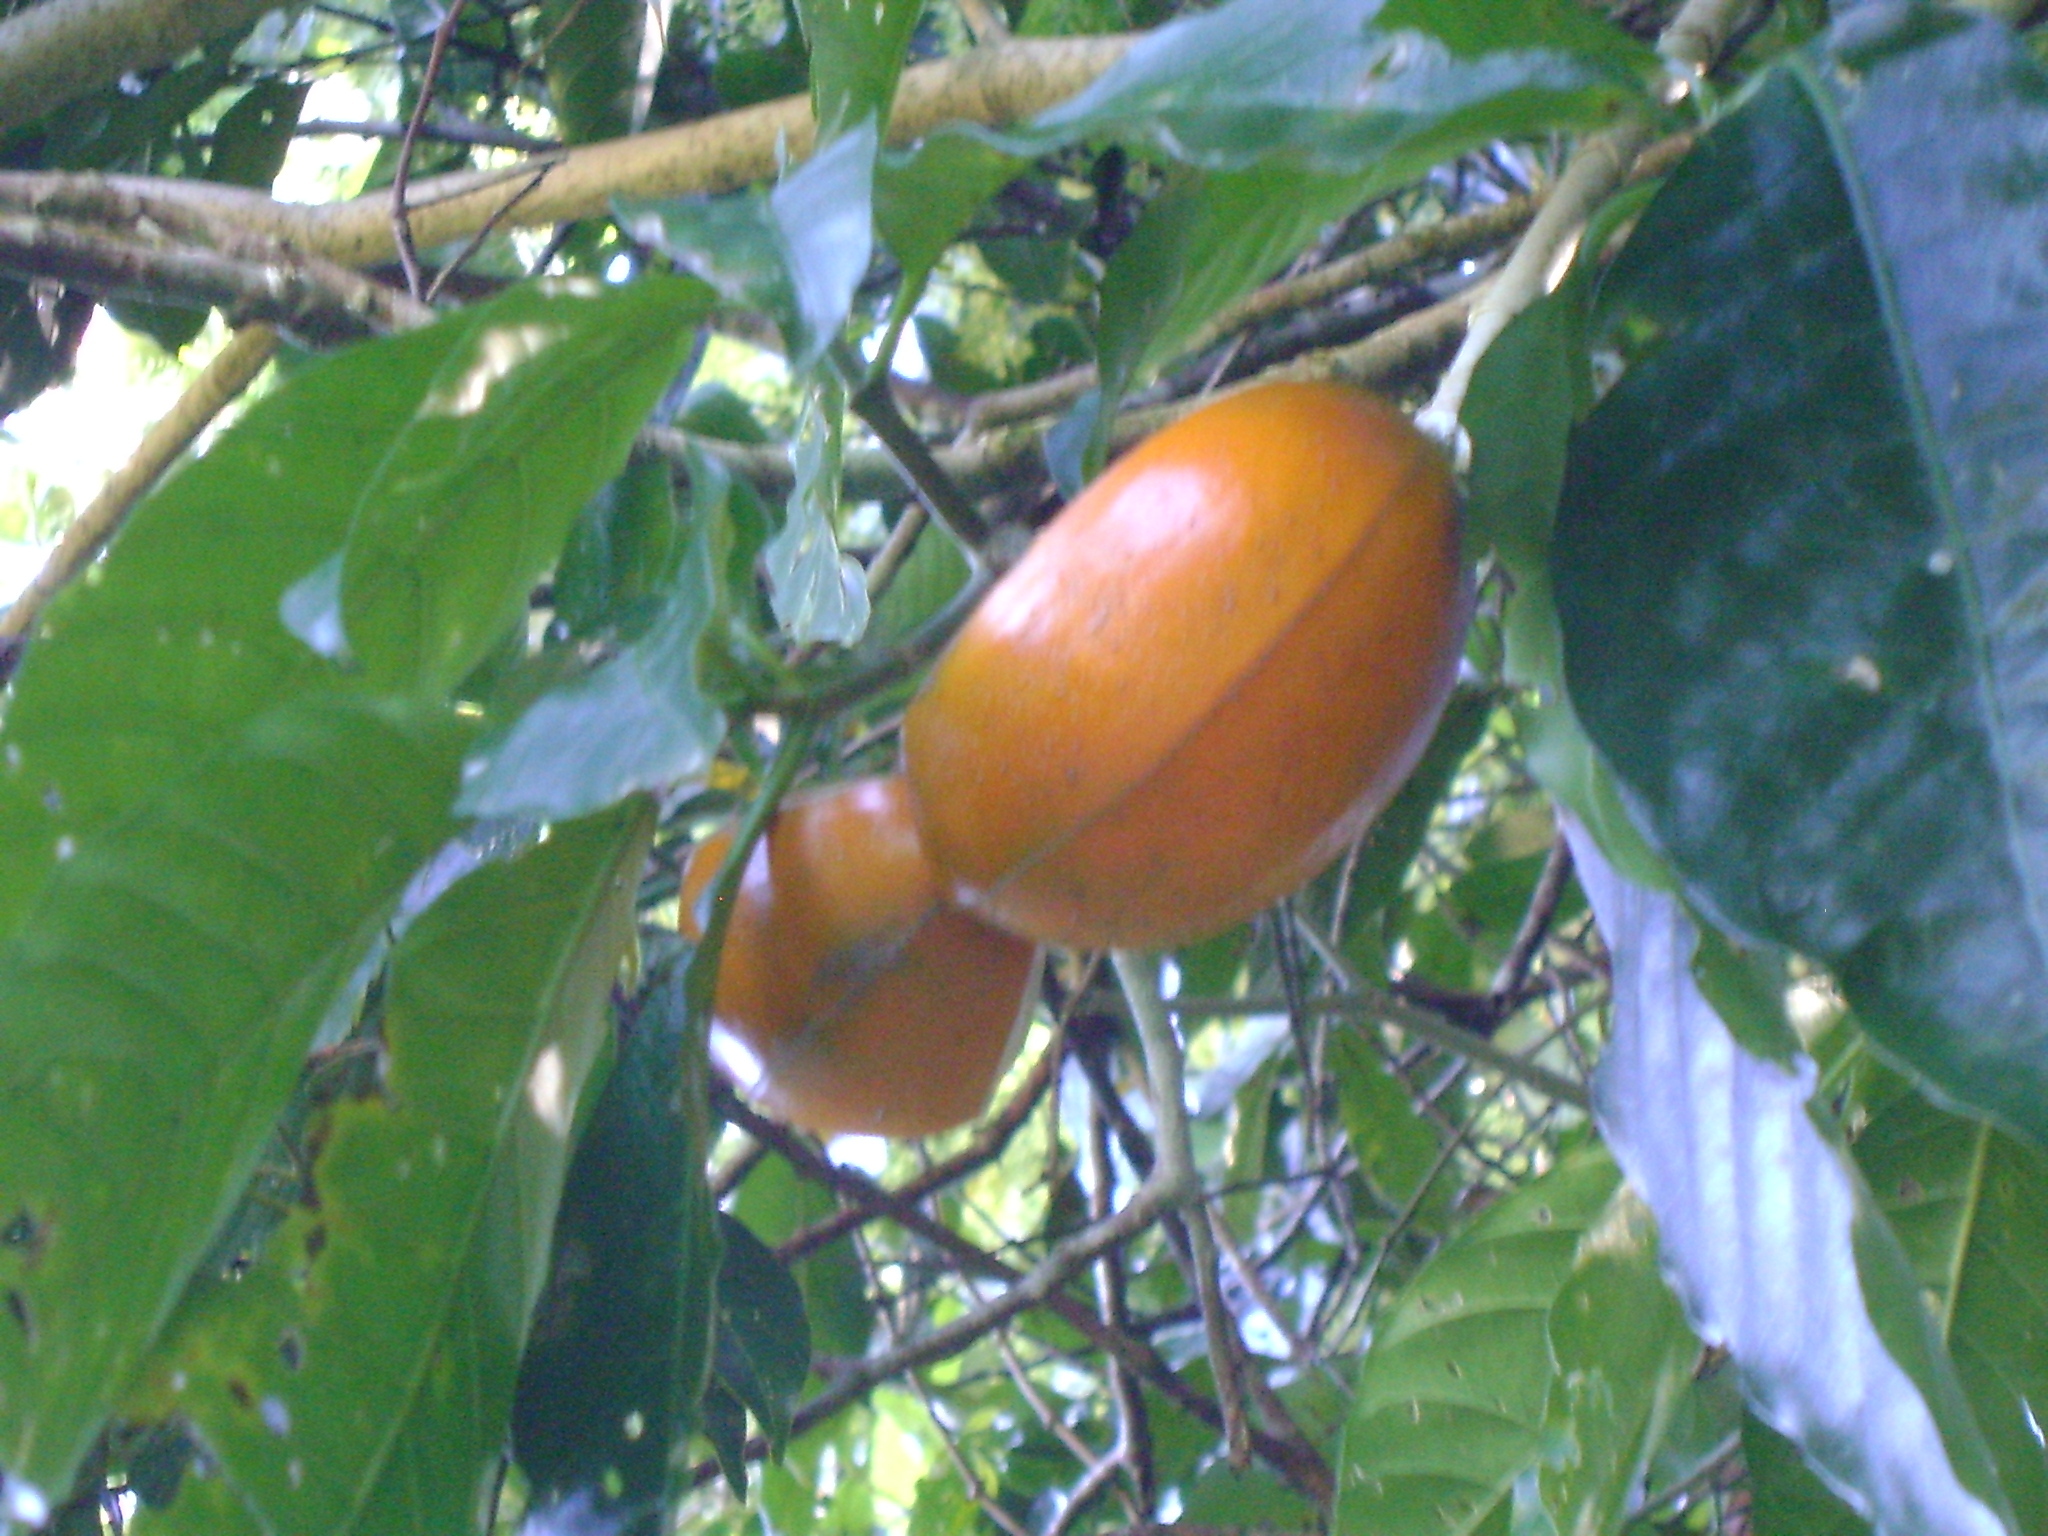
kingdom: Plantae
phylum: Tracheophyta
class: Magnoliopsida
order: Gentianales
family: Apocynaceae
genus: Tabernaemontana
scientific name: Tabernaemontana litoralis
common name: Milkwood
